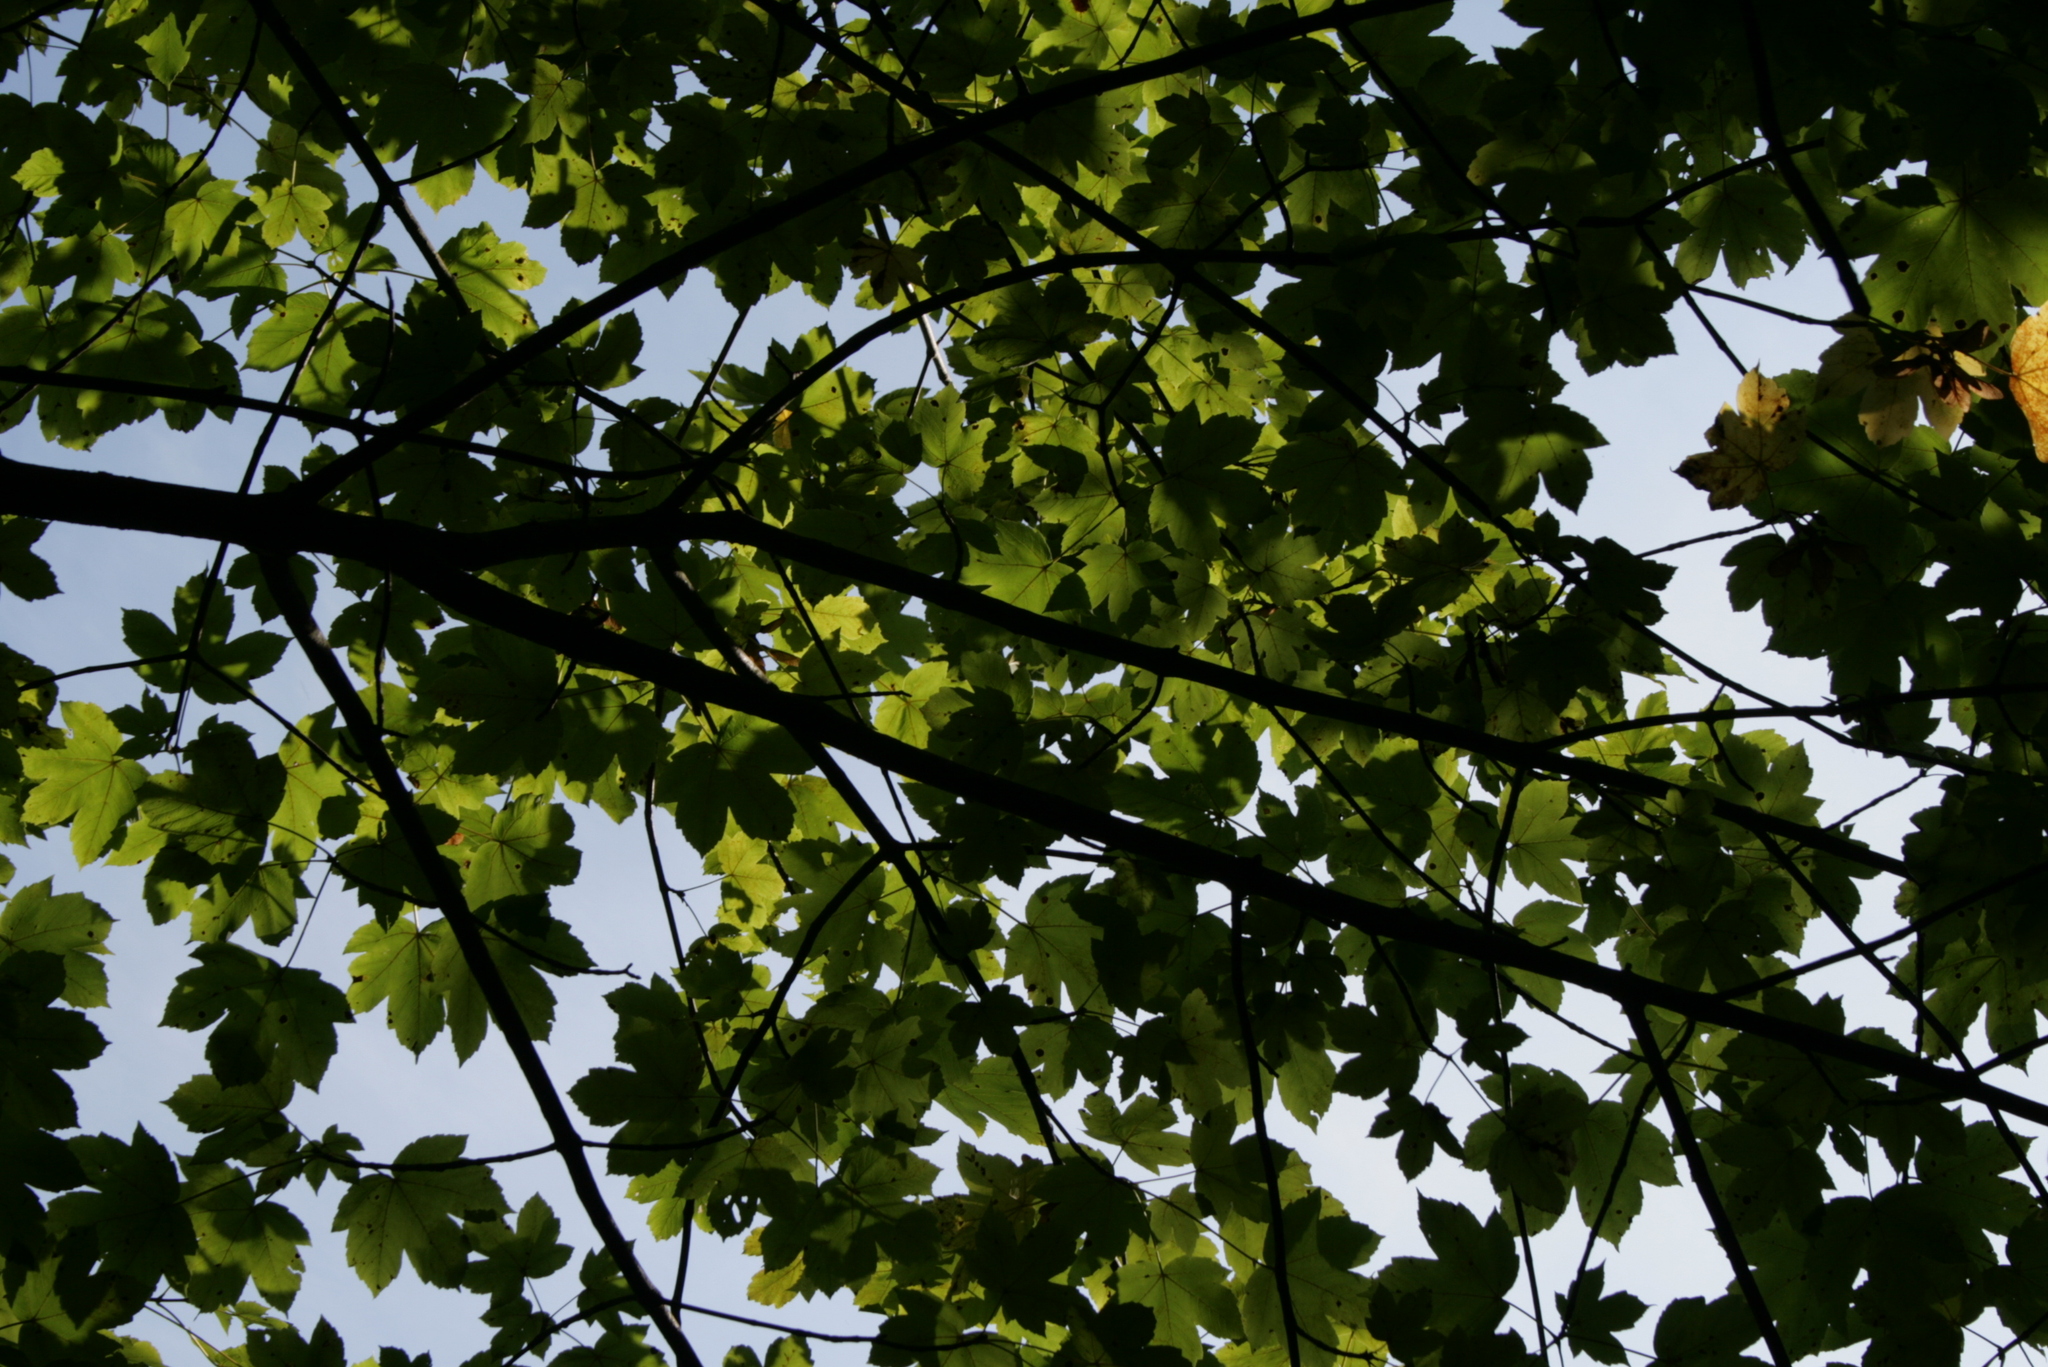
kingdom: Plantae
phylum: Tracheophyta
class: Magnoliopsida
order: Sapindales
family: Sapindaceae
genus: Acer
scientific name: Acer pseudoplatanus
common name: Sycamore
